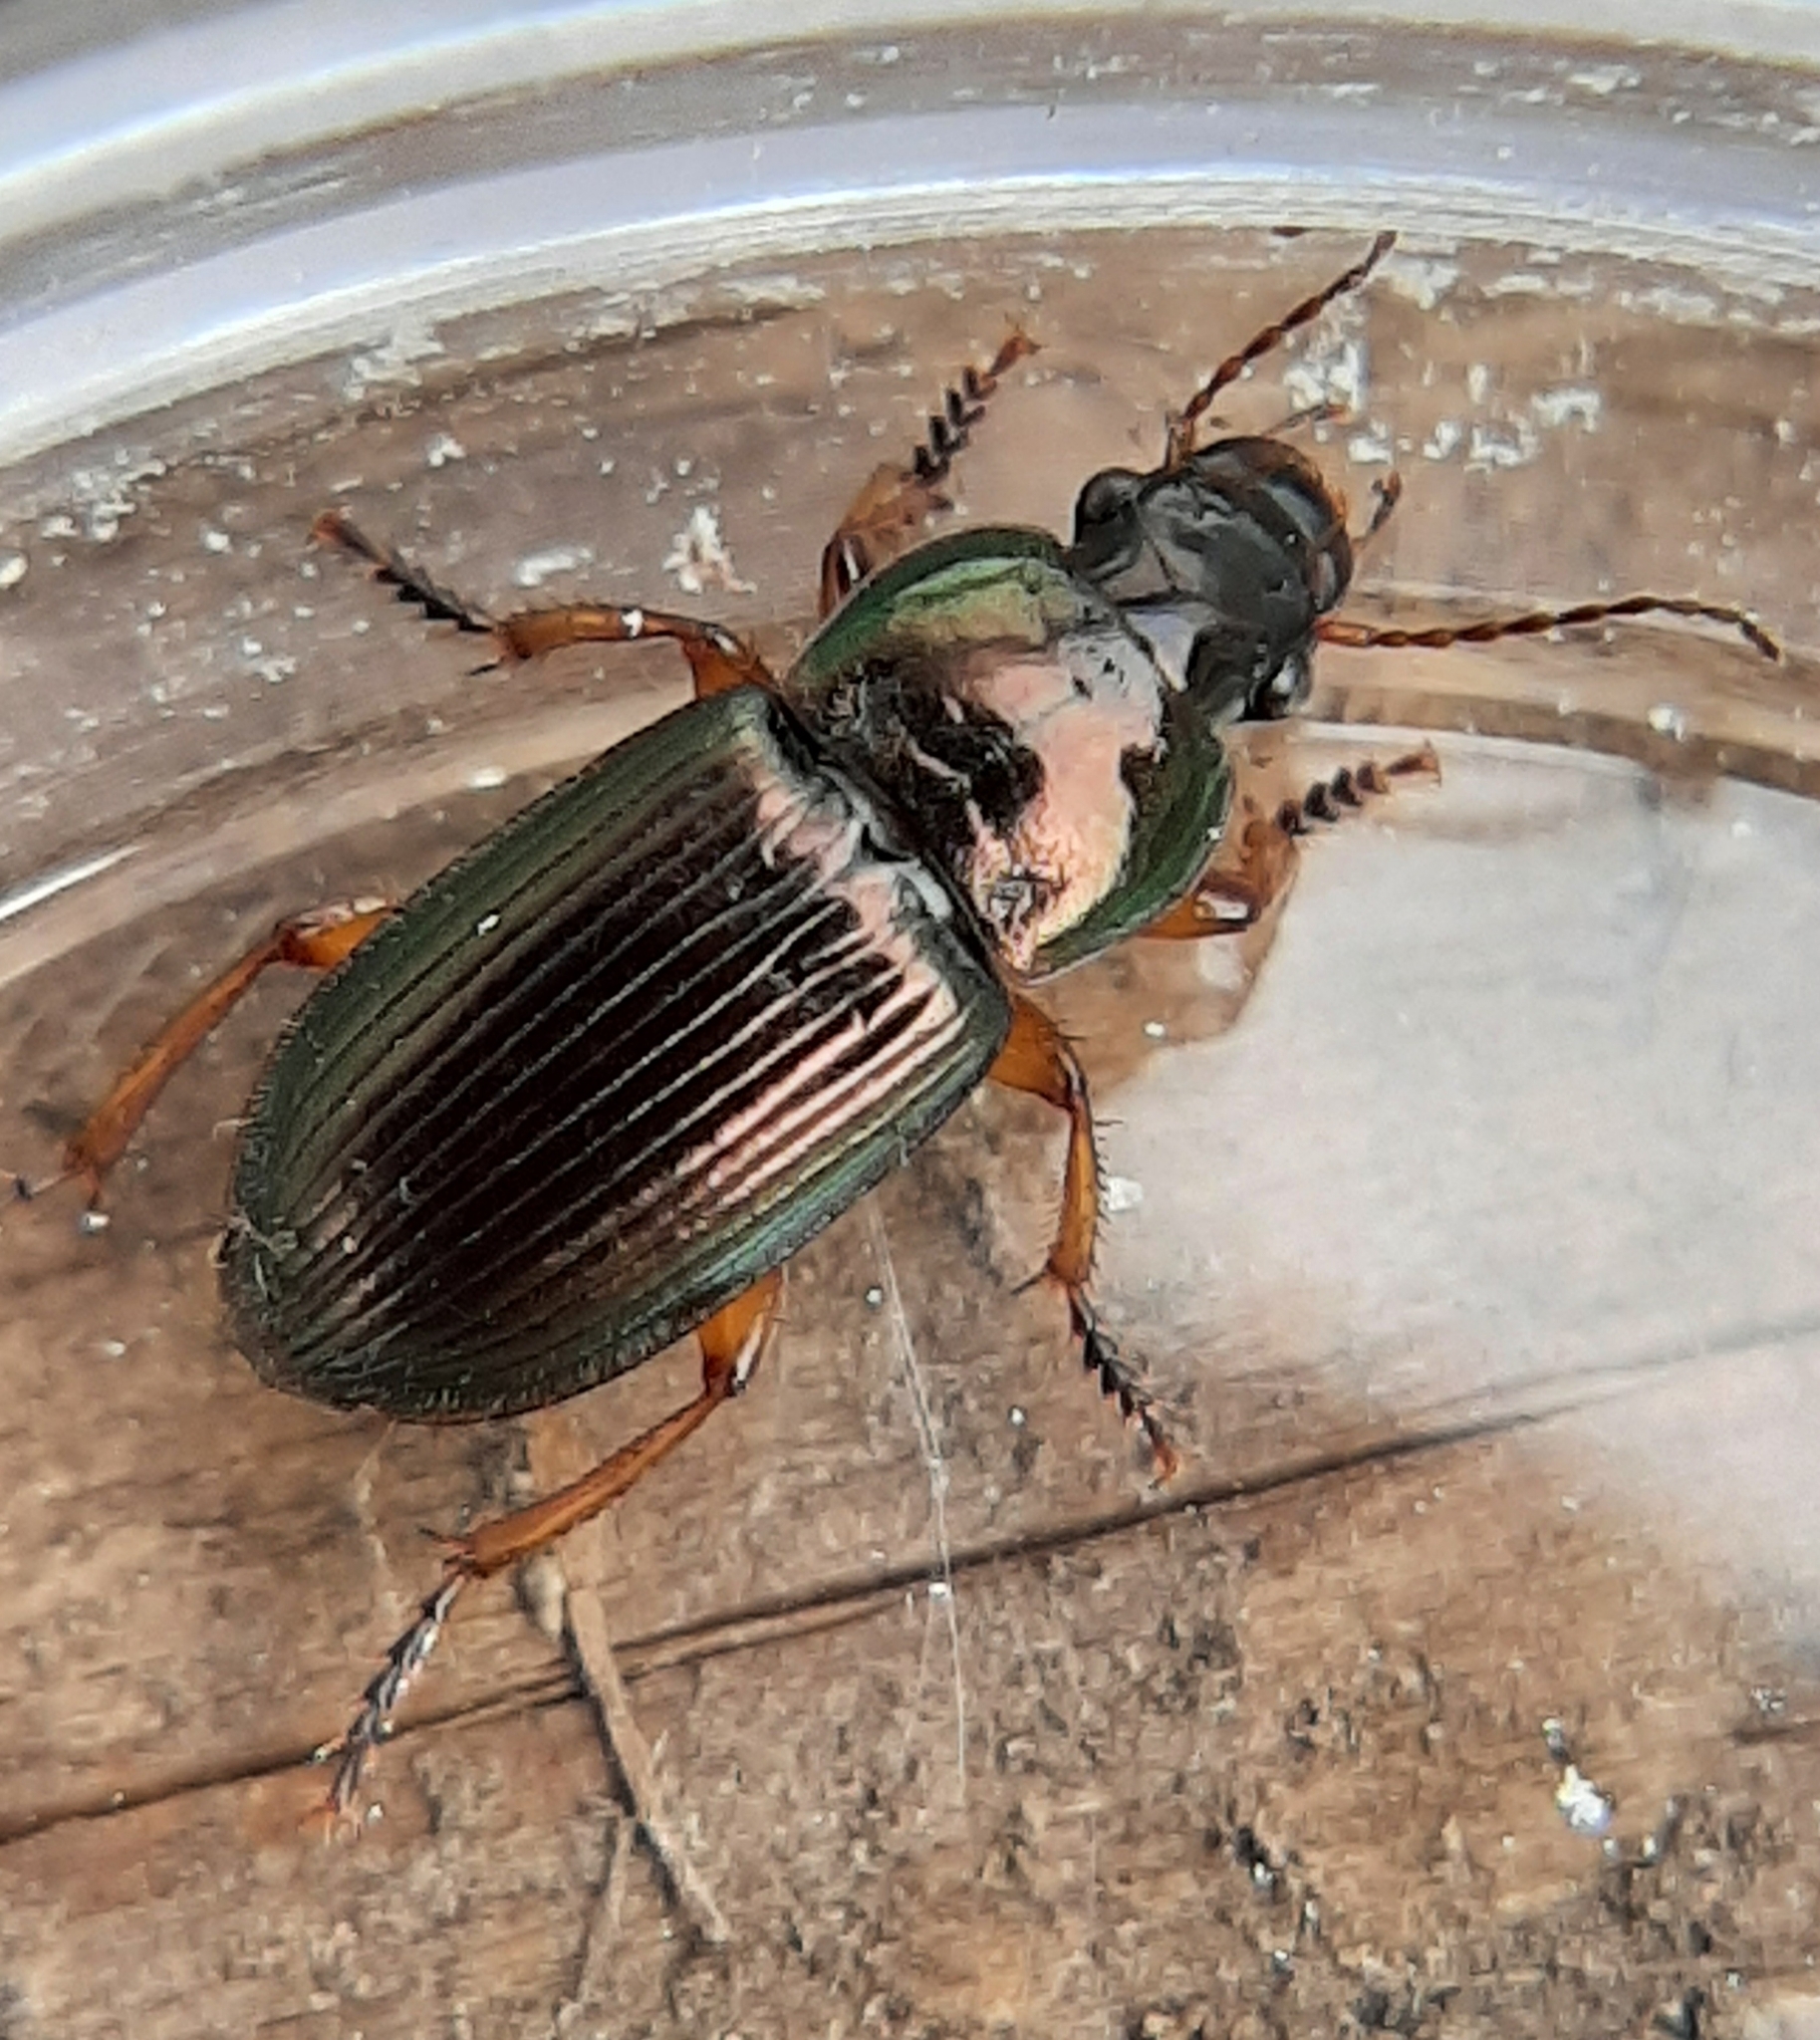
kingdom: Animalia
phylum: Arthropoda
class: Insecta
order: Coleoptera
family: Carabidae
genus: Harpalus
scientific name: Harpalus affinis
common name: Polychrome harp ground beetle
